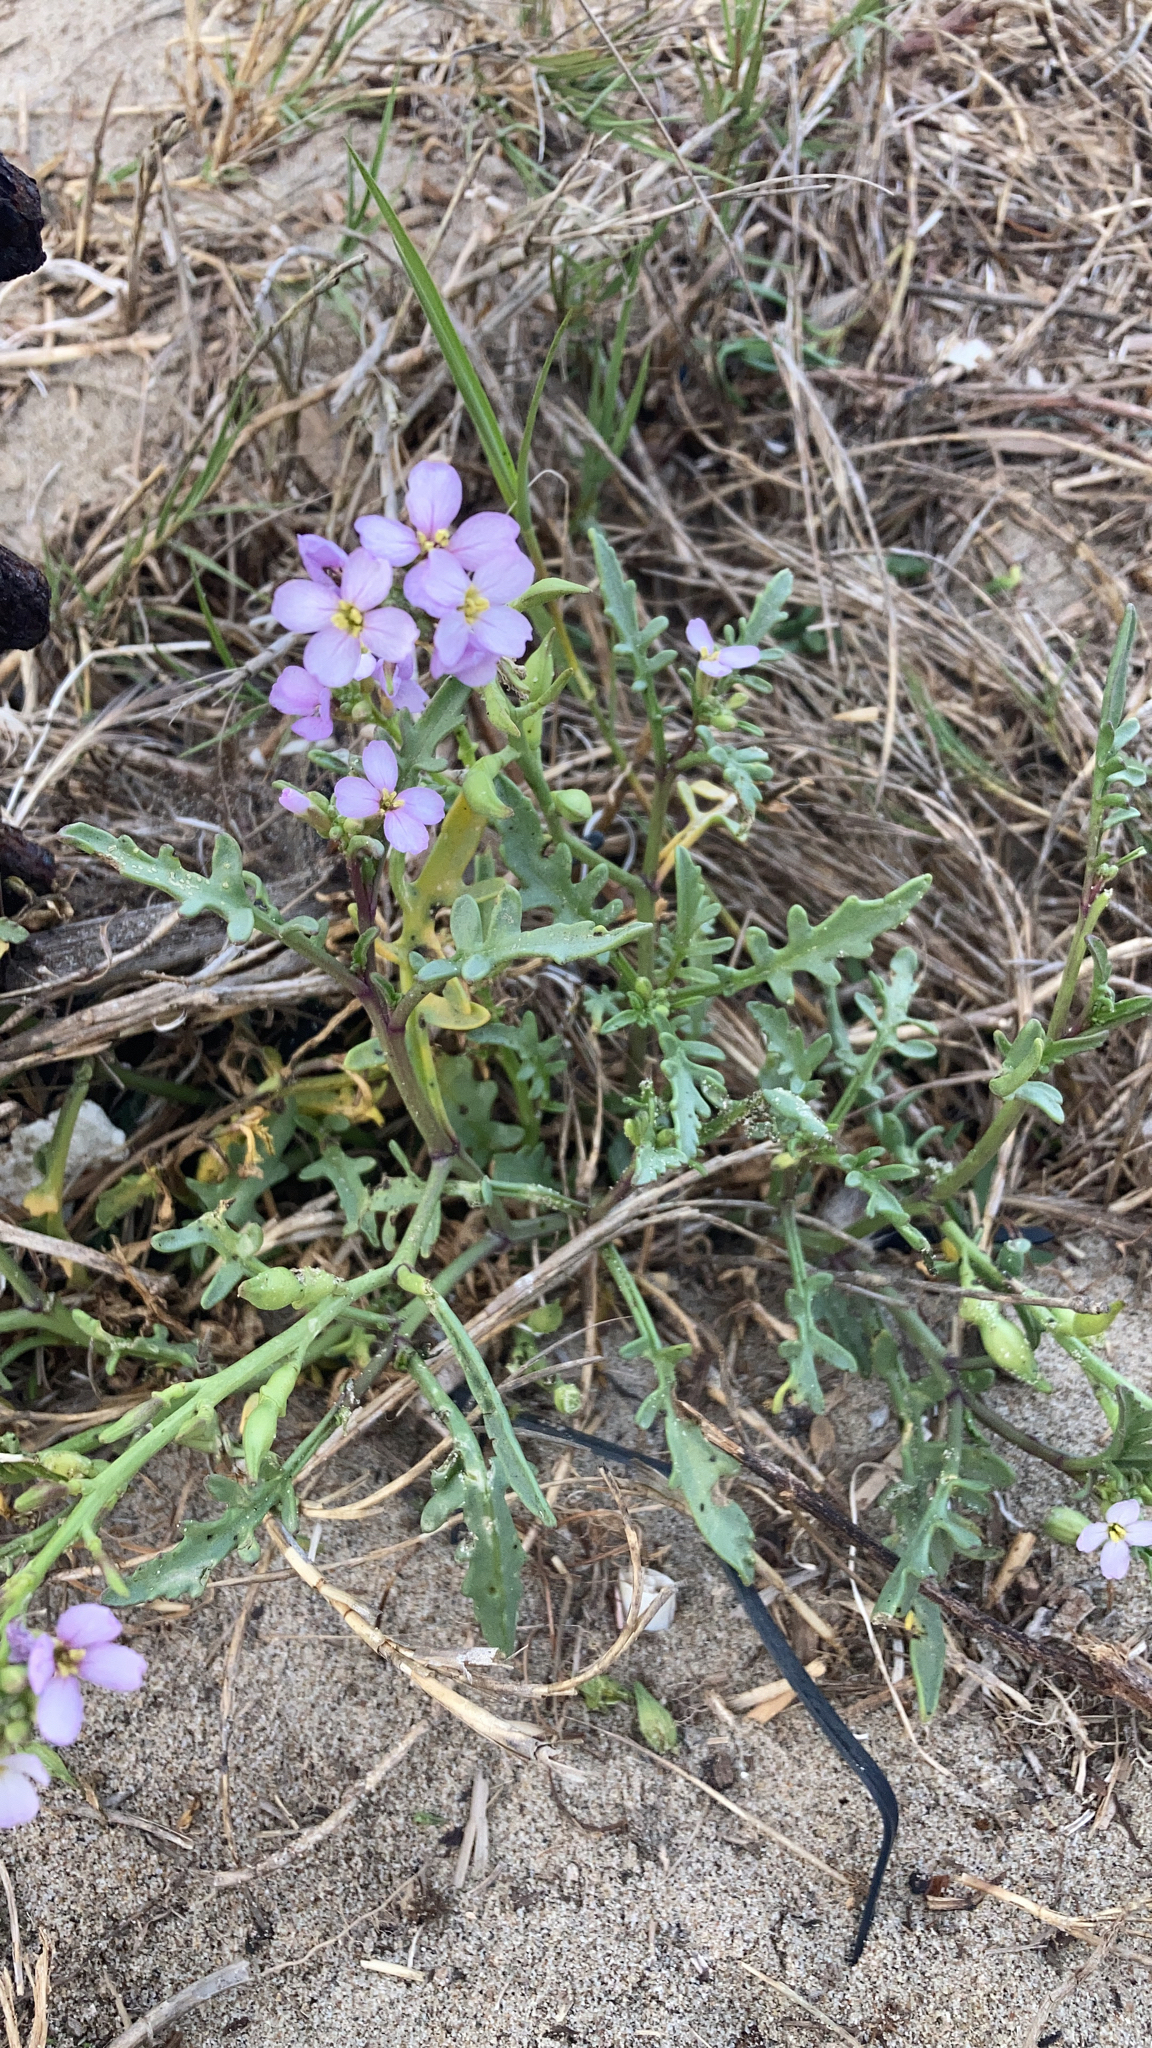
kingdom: Plantae
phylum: Tracheophyta
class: Magnoliopsida
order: Brassicales
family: Brassicaceae
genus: Cakile
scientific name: Cakile maritima
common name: Sea rocket
